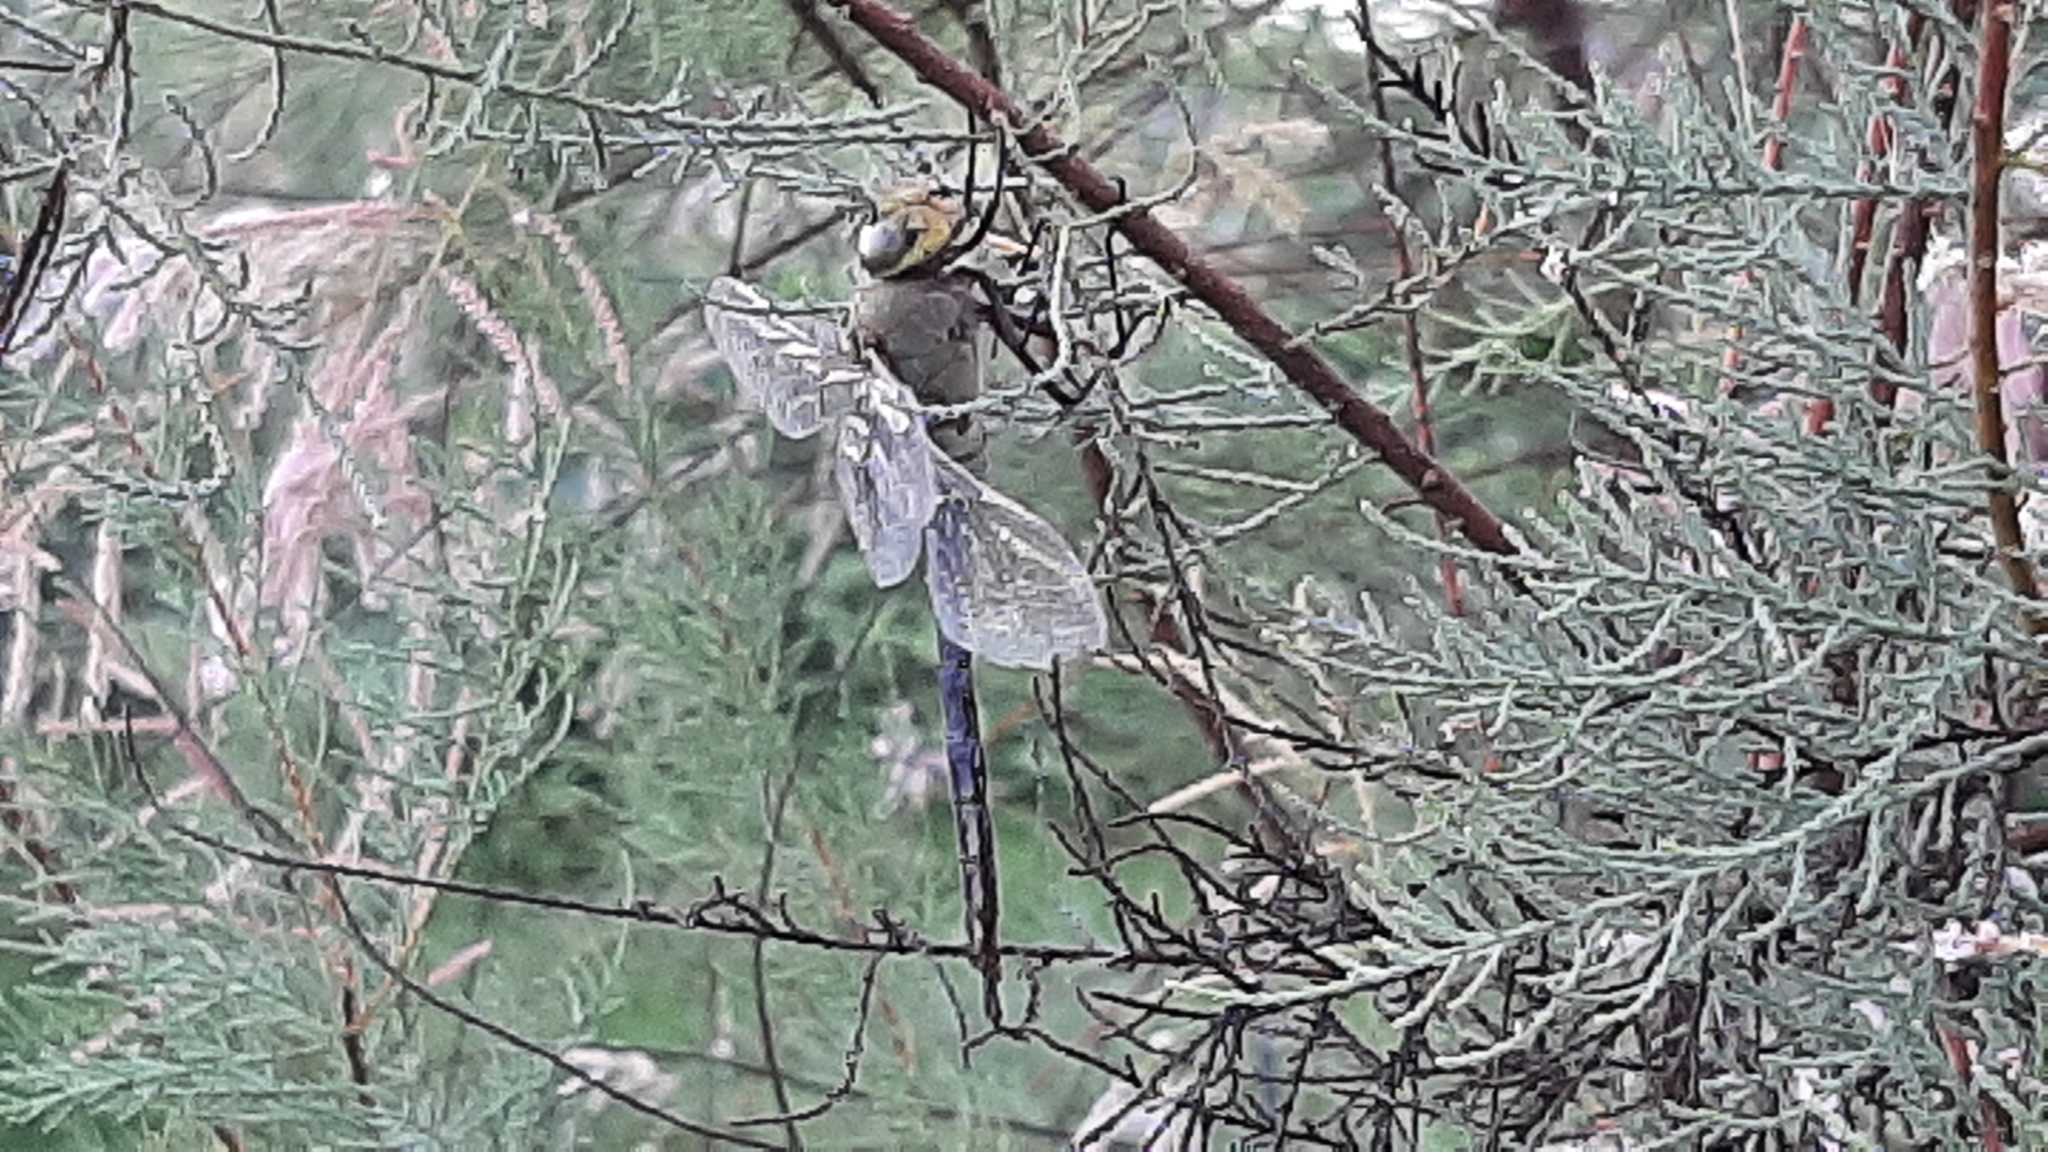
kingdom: Animalia
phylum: Arthropoda
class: Insecta
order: Odonata
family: Aeshnidae
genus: Anax
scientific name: Anax junius
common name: Common green darner
